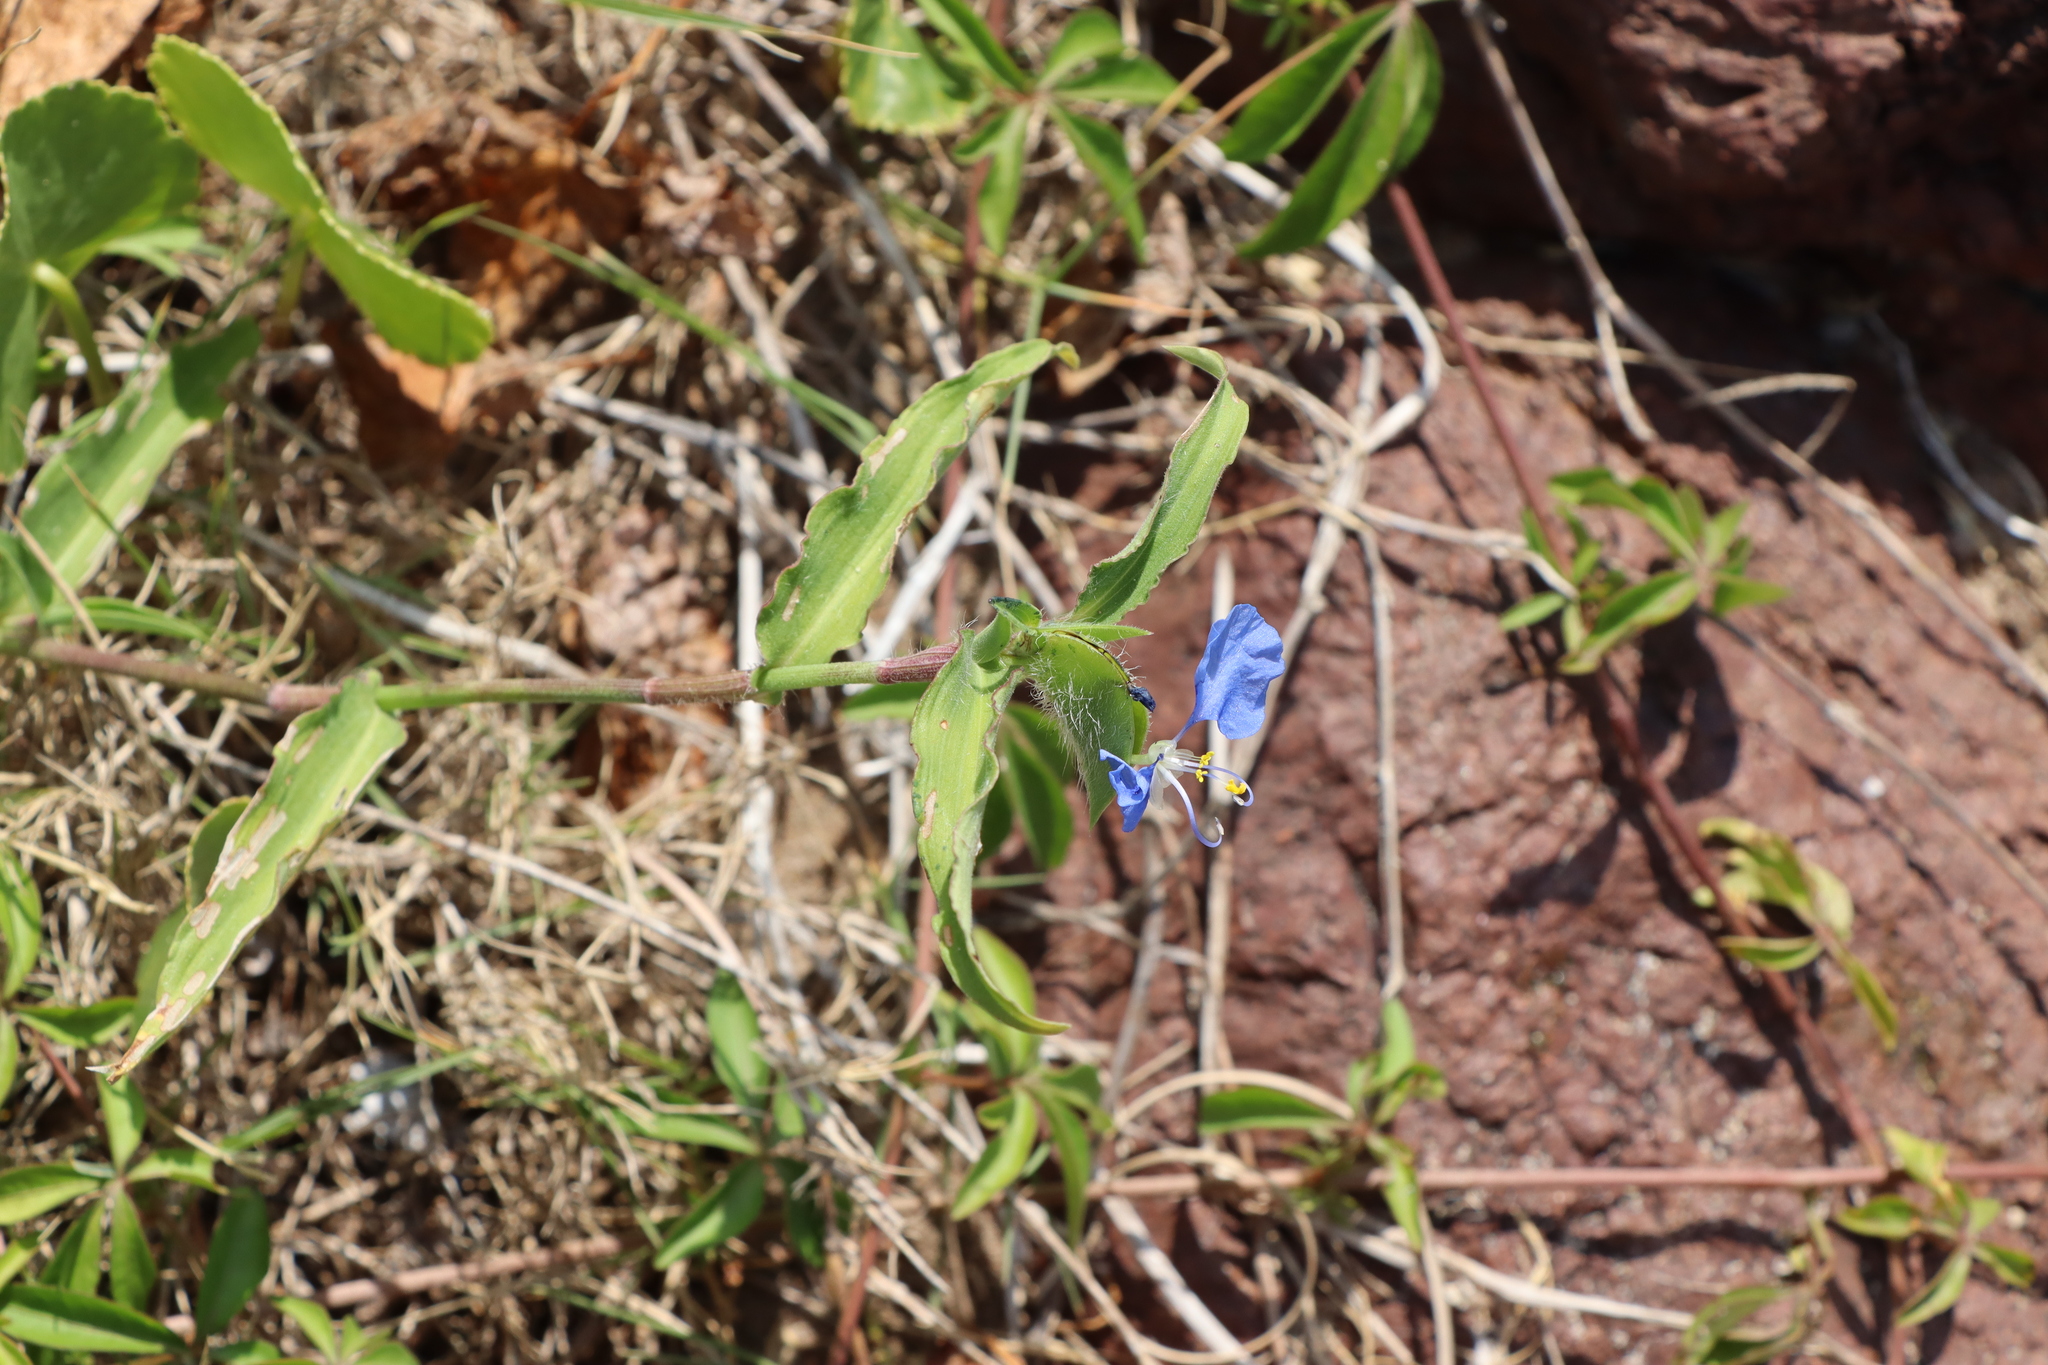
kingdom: Plantae
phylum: Tracheophyta
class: Liliopsida
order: Commelinales
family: Commelinaceae
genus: Commelina
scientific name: Commelina erecta
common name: Blousel blommetjie
